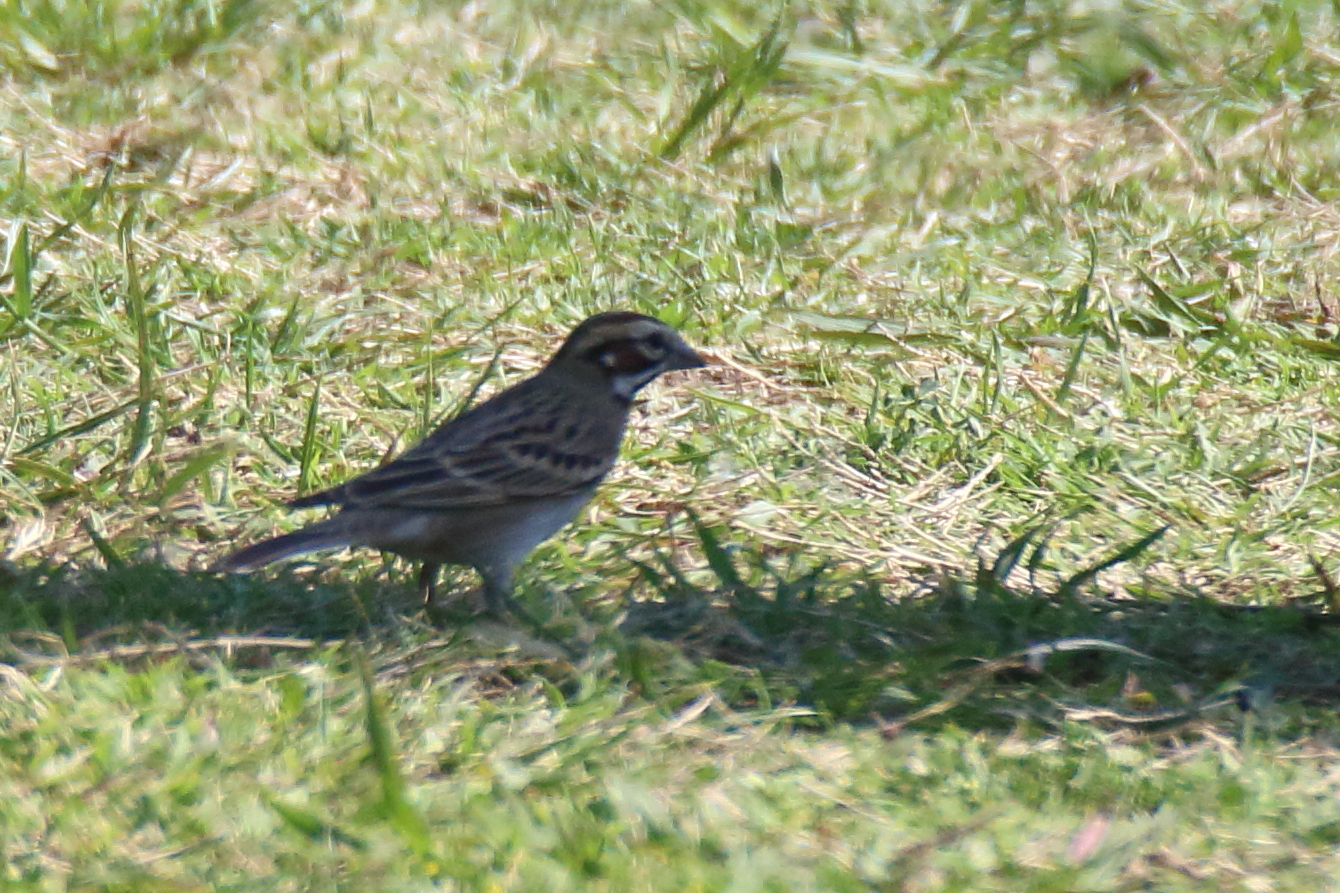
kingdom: Animalia
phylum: Chordata
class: Aves
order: Passeriformes
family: Passerellidae
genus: Chondestes
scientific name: Chondestes grammacus
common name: Lark sparrow
